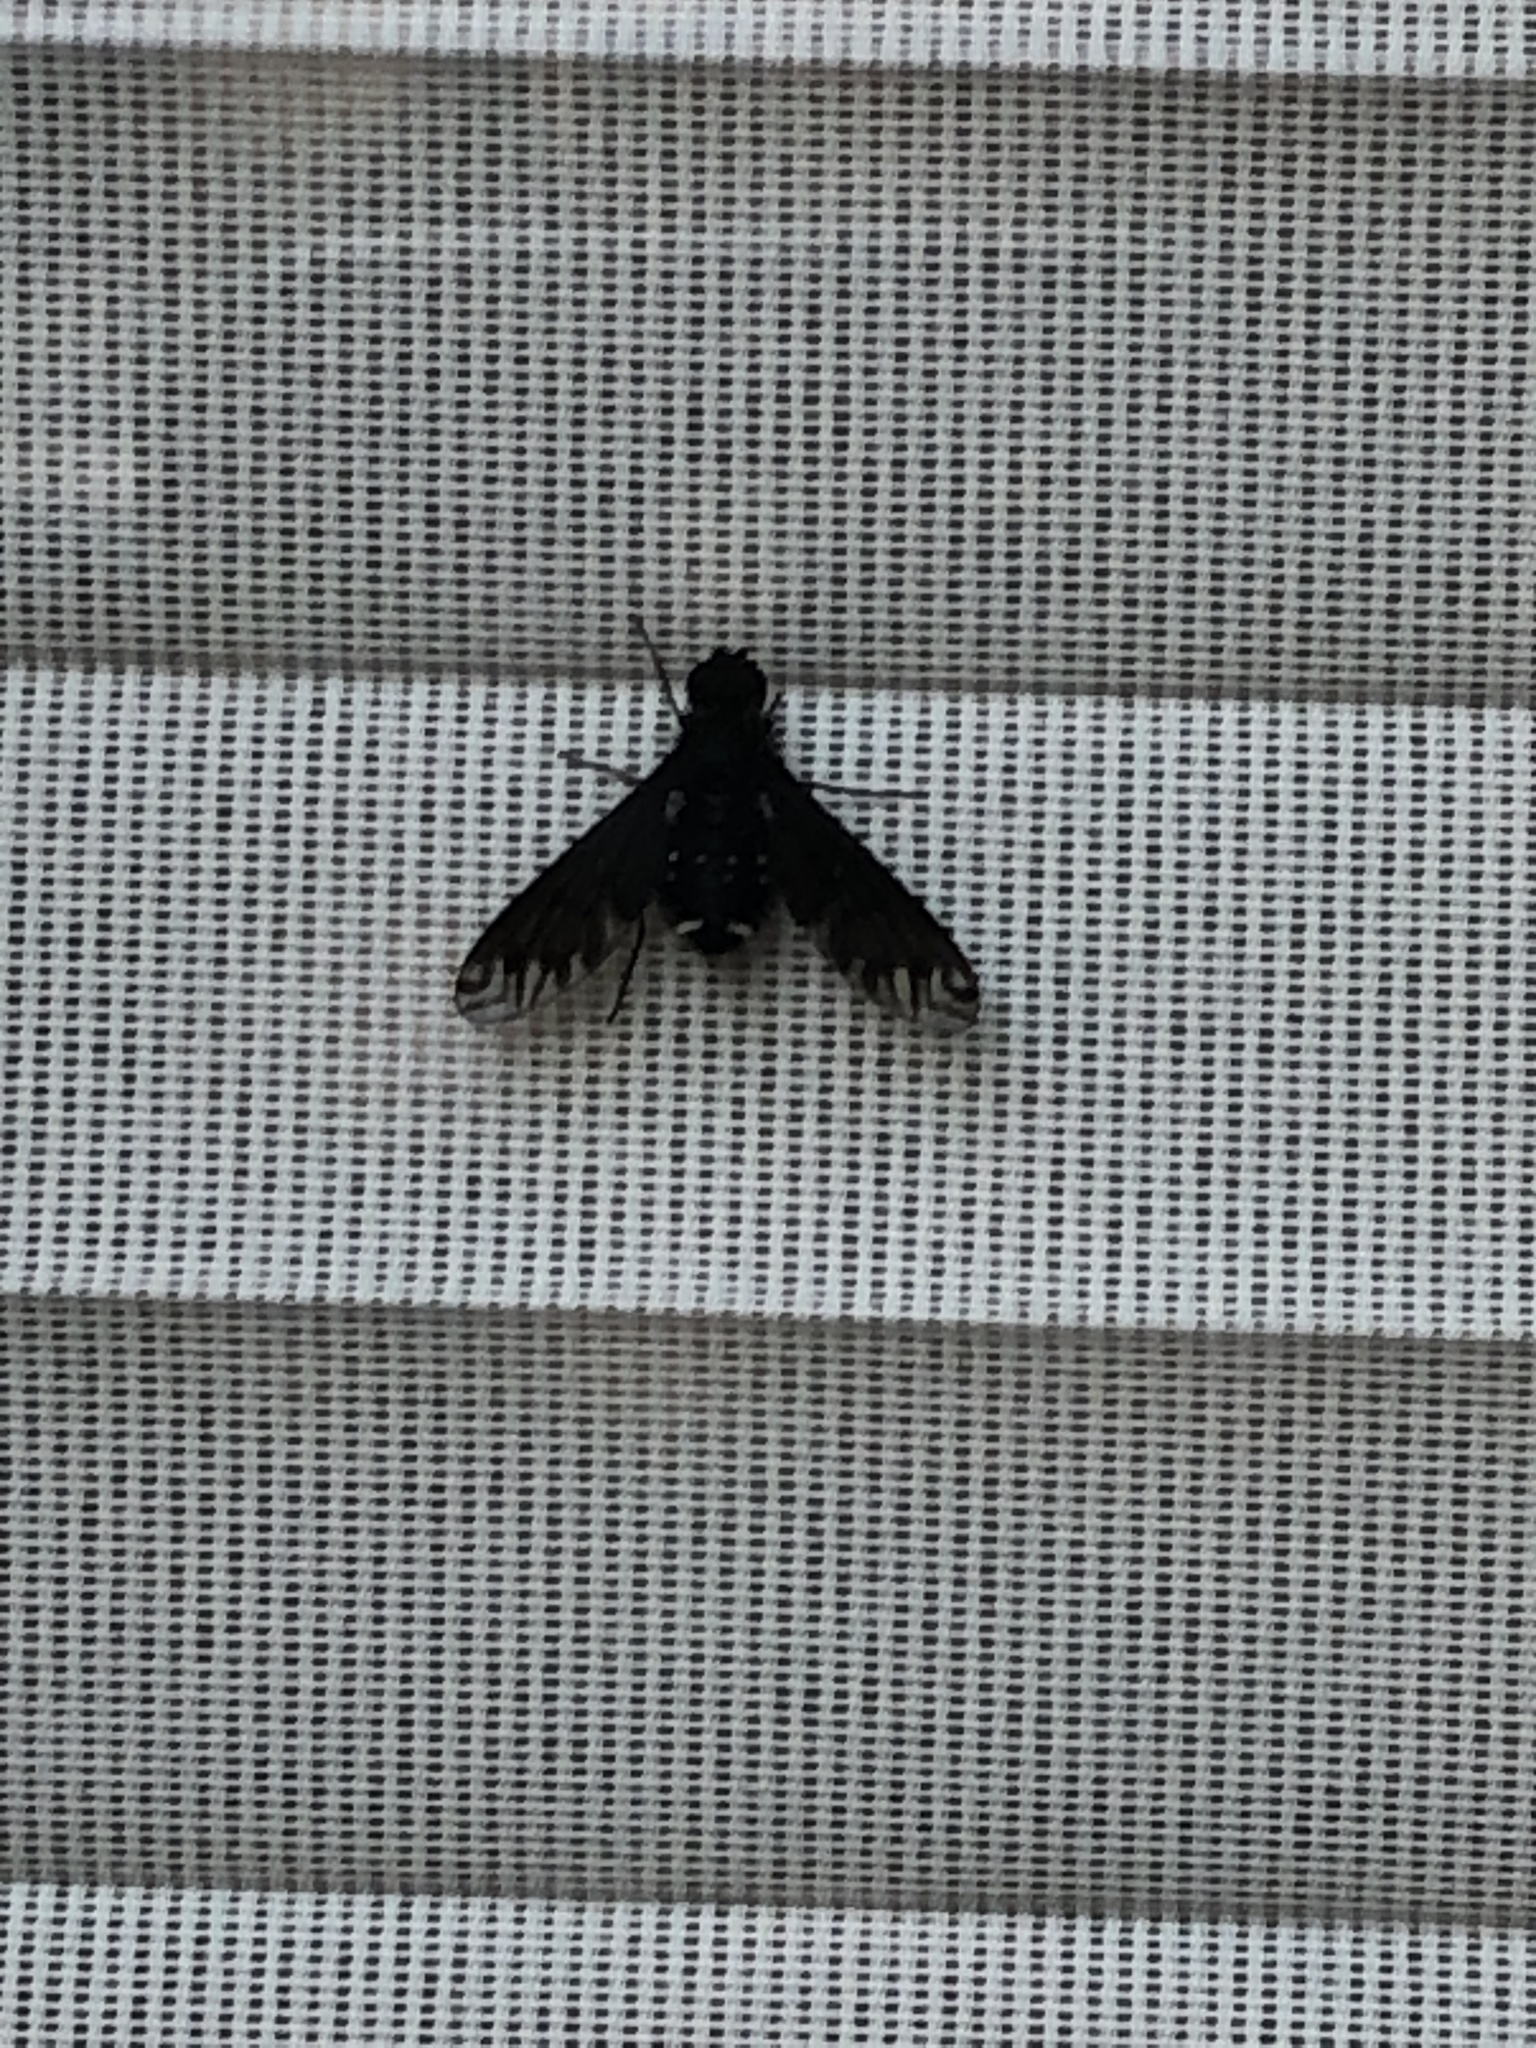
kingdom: Animalia
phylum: Arthropoda
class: Insecta
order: Diptera
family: Bombyliidae
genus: Anthrax
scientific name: Anthrax anthrax
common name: Anthracite bee-fly
